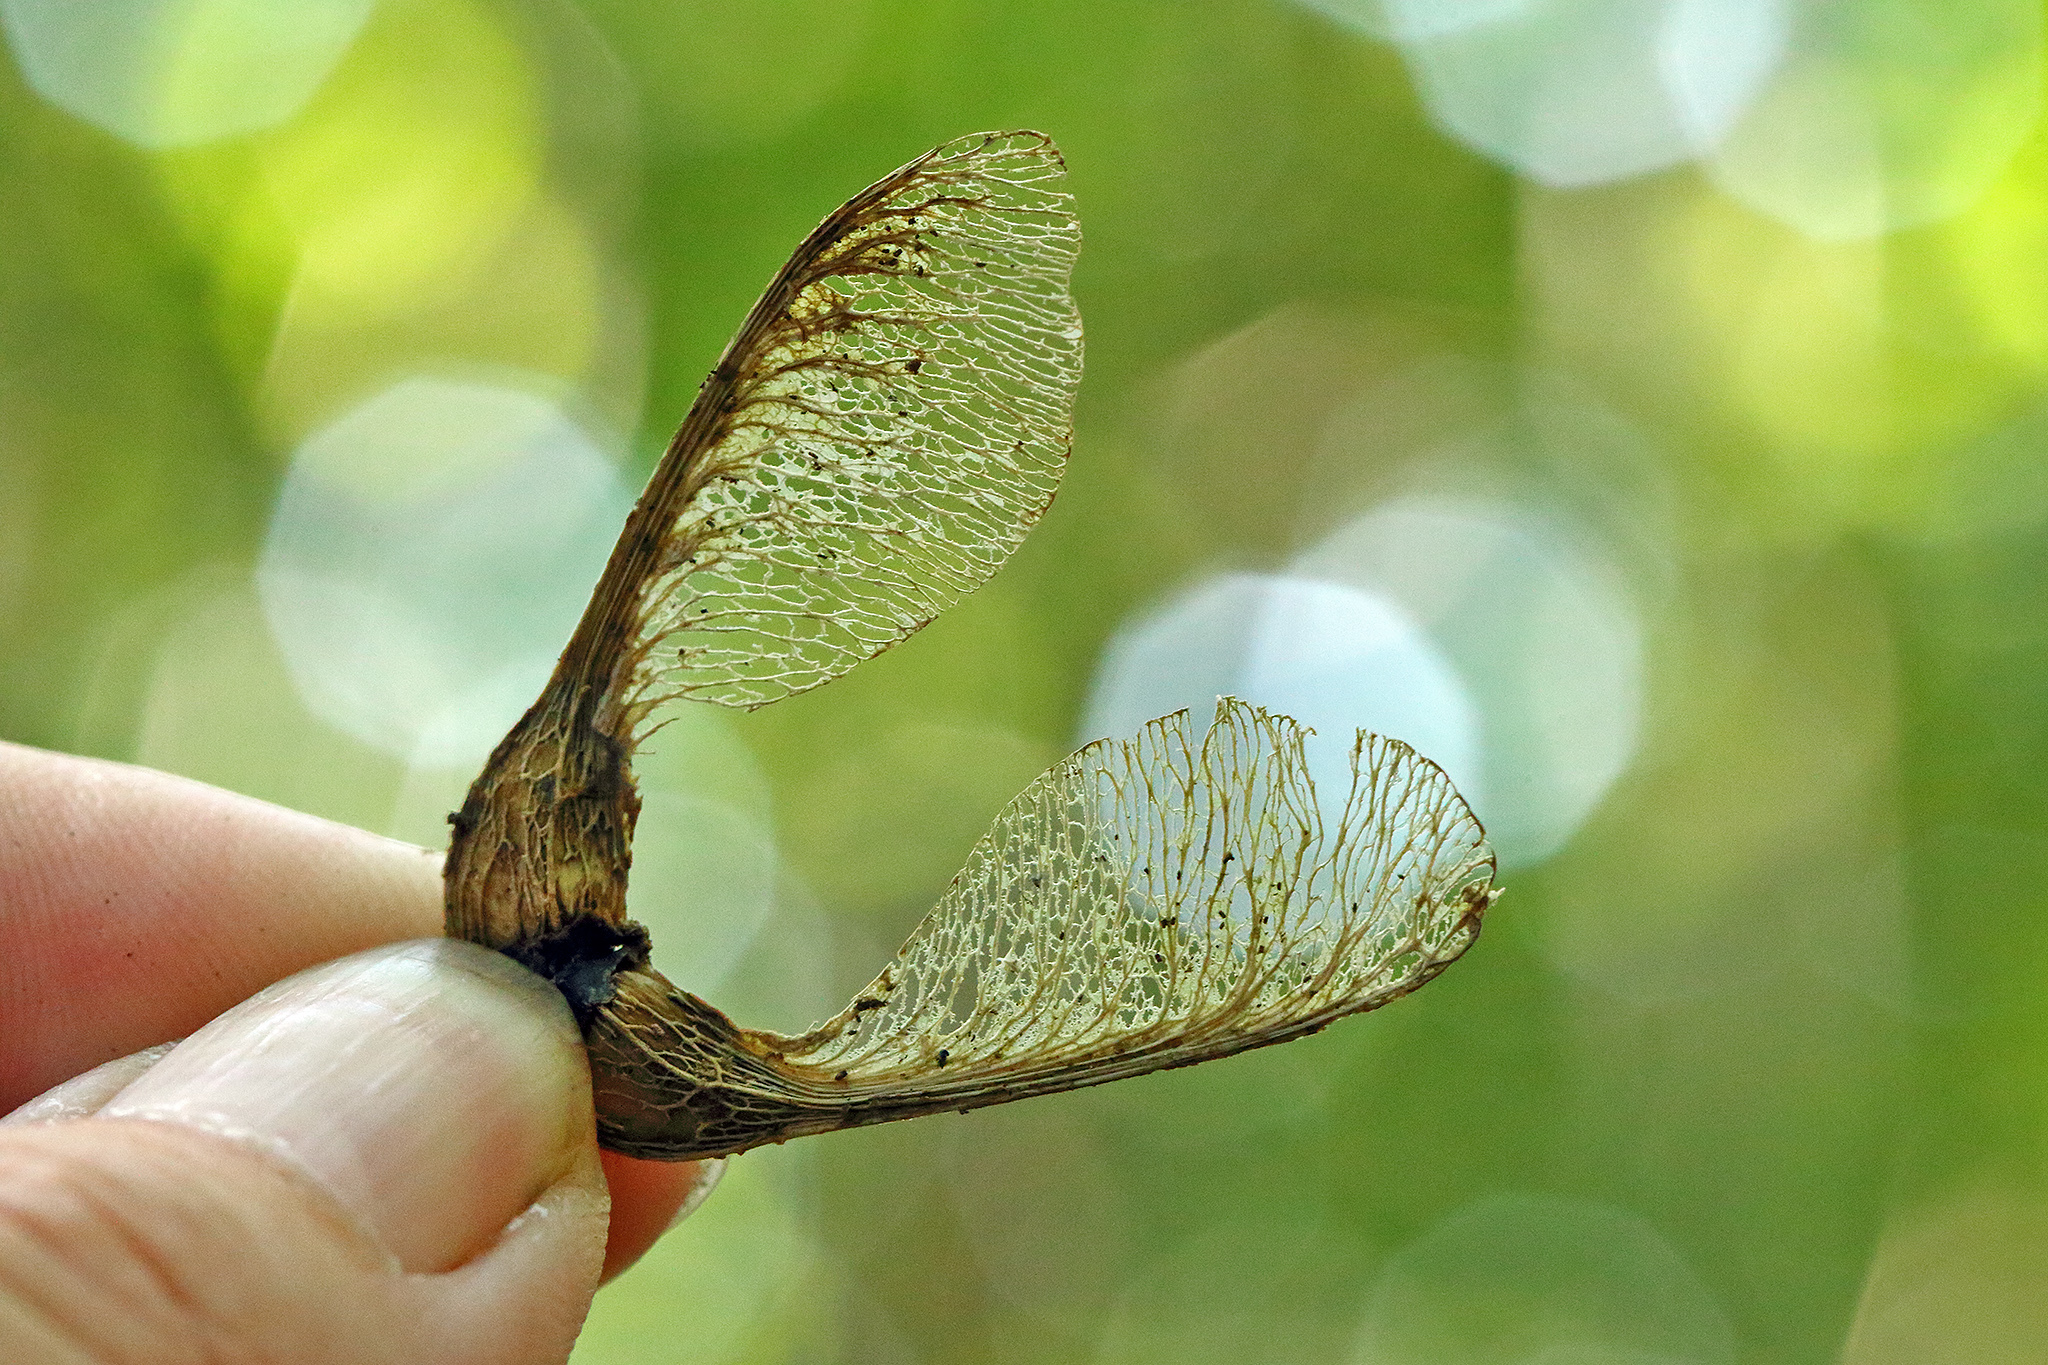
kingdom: Plantae
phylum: Tracheophyta
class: Magnoliopsida
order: Sapindales
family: Sapindaceae
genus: Acer
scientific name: Acer pseudoplatanus
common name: Sycamore
